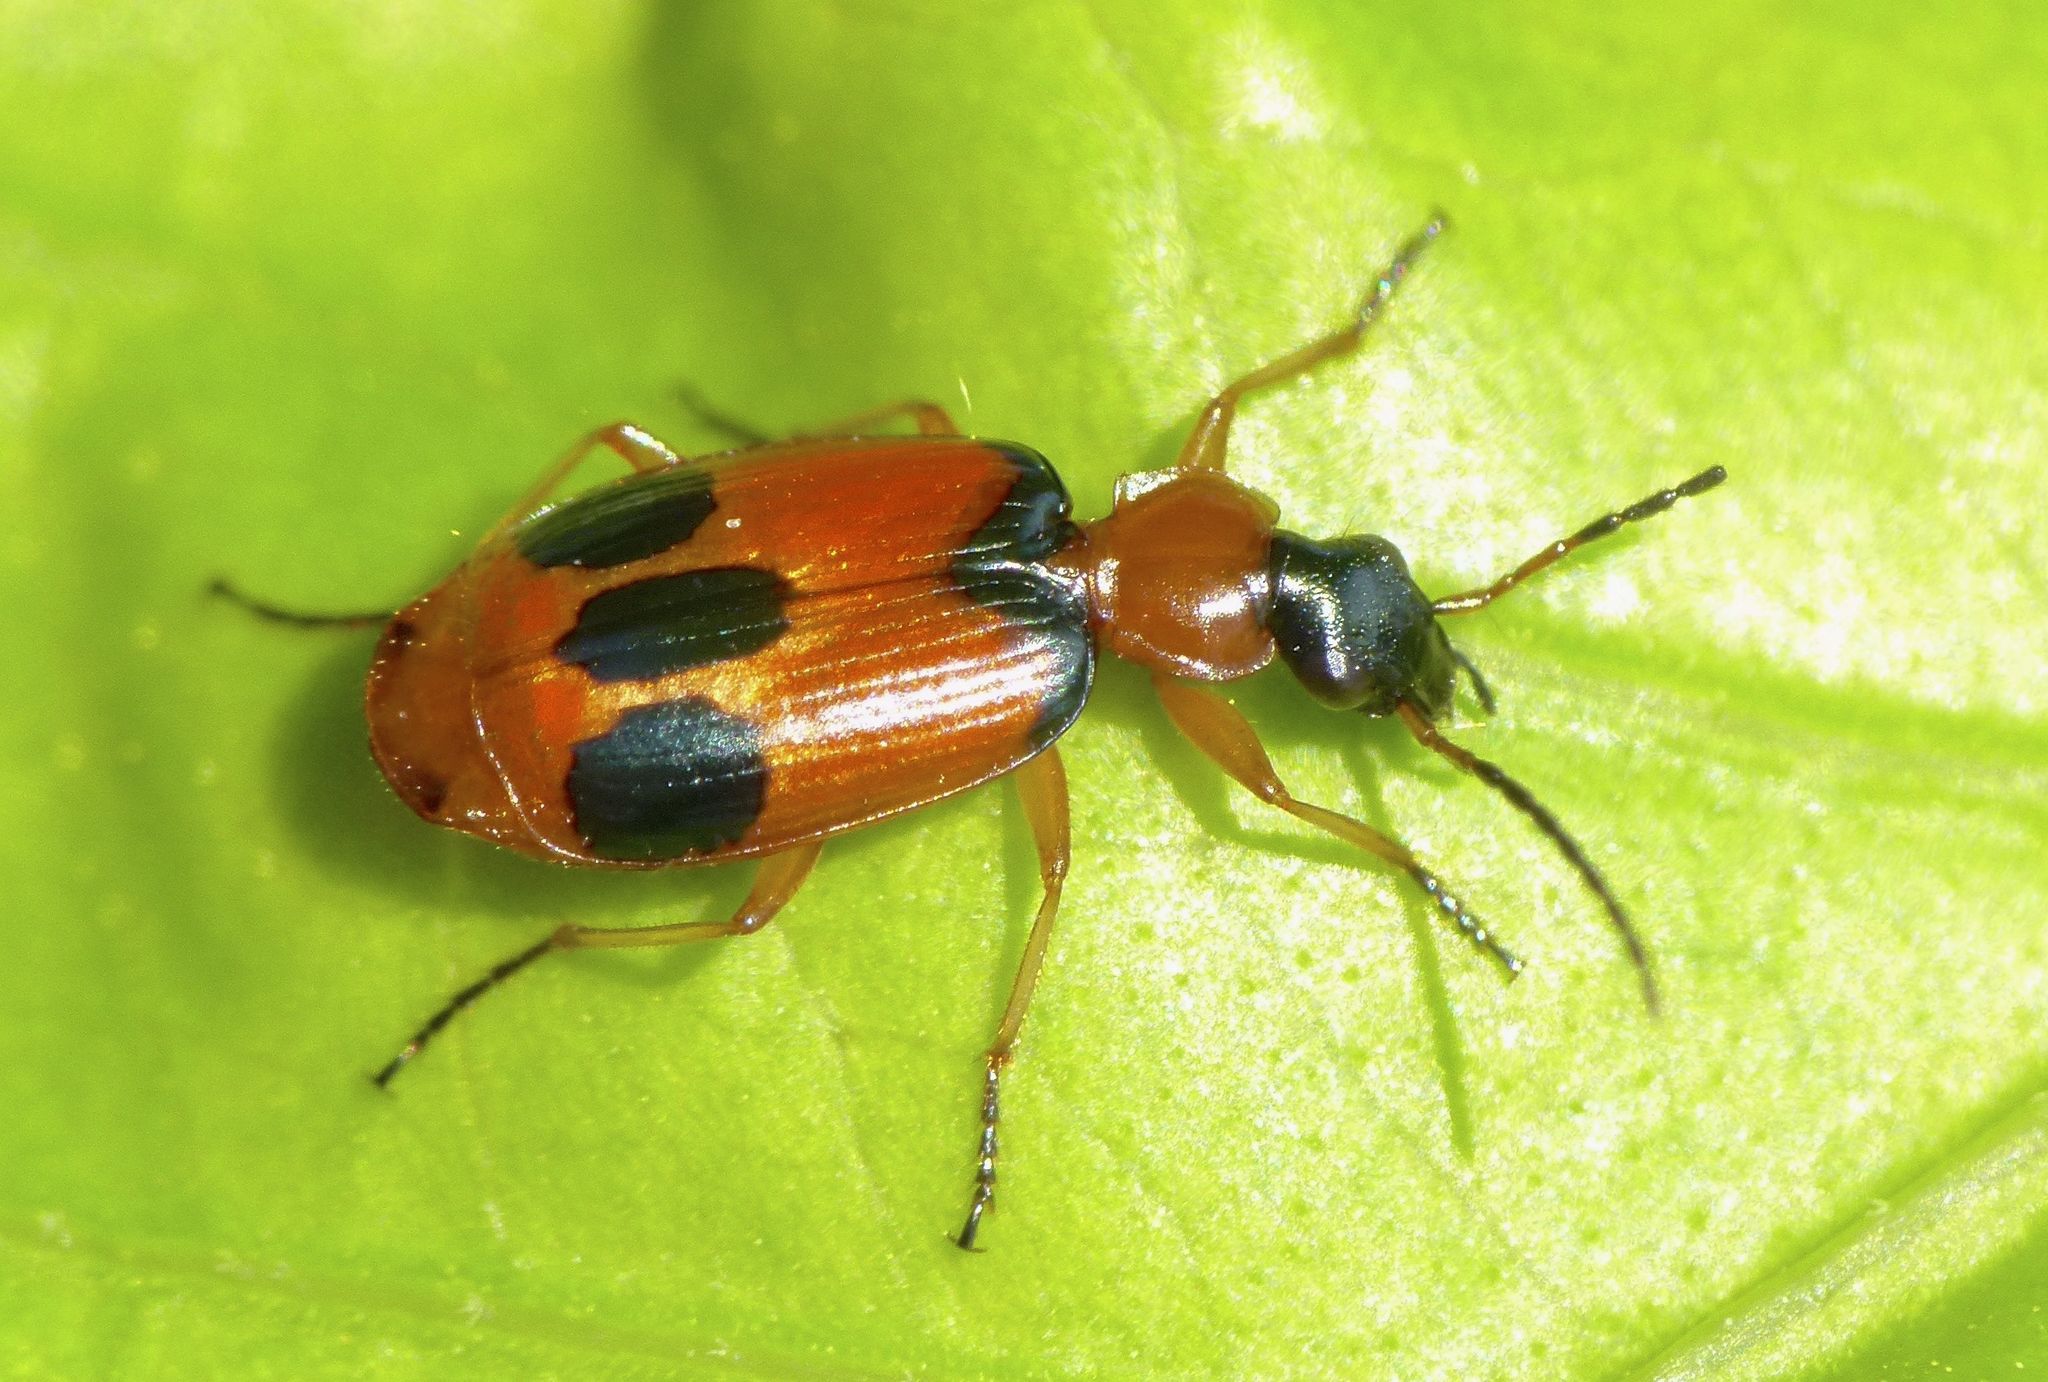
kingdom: Animalia
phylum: Arthropoda
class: Insecta
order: Coleoptera
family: Carabidae
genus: Lebia
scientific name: Lebia pulchella
